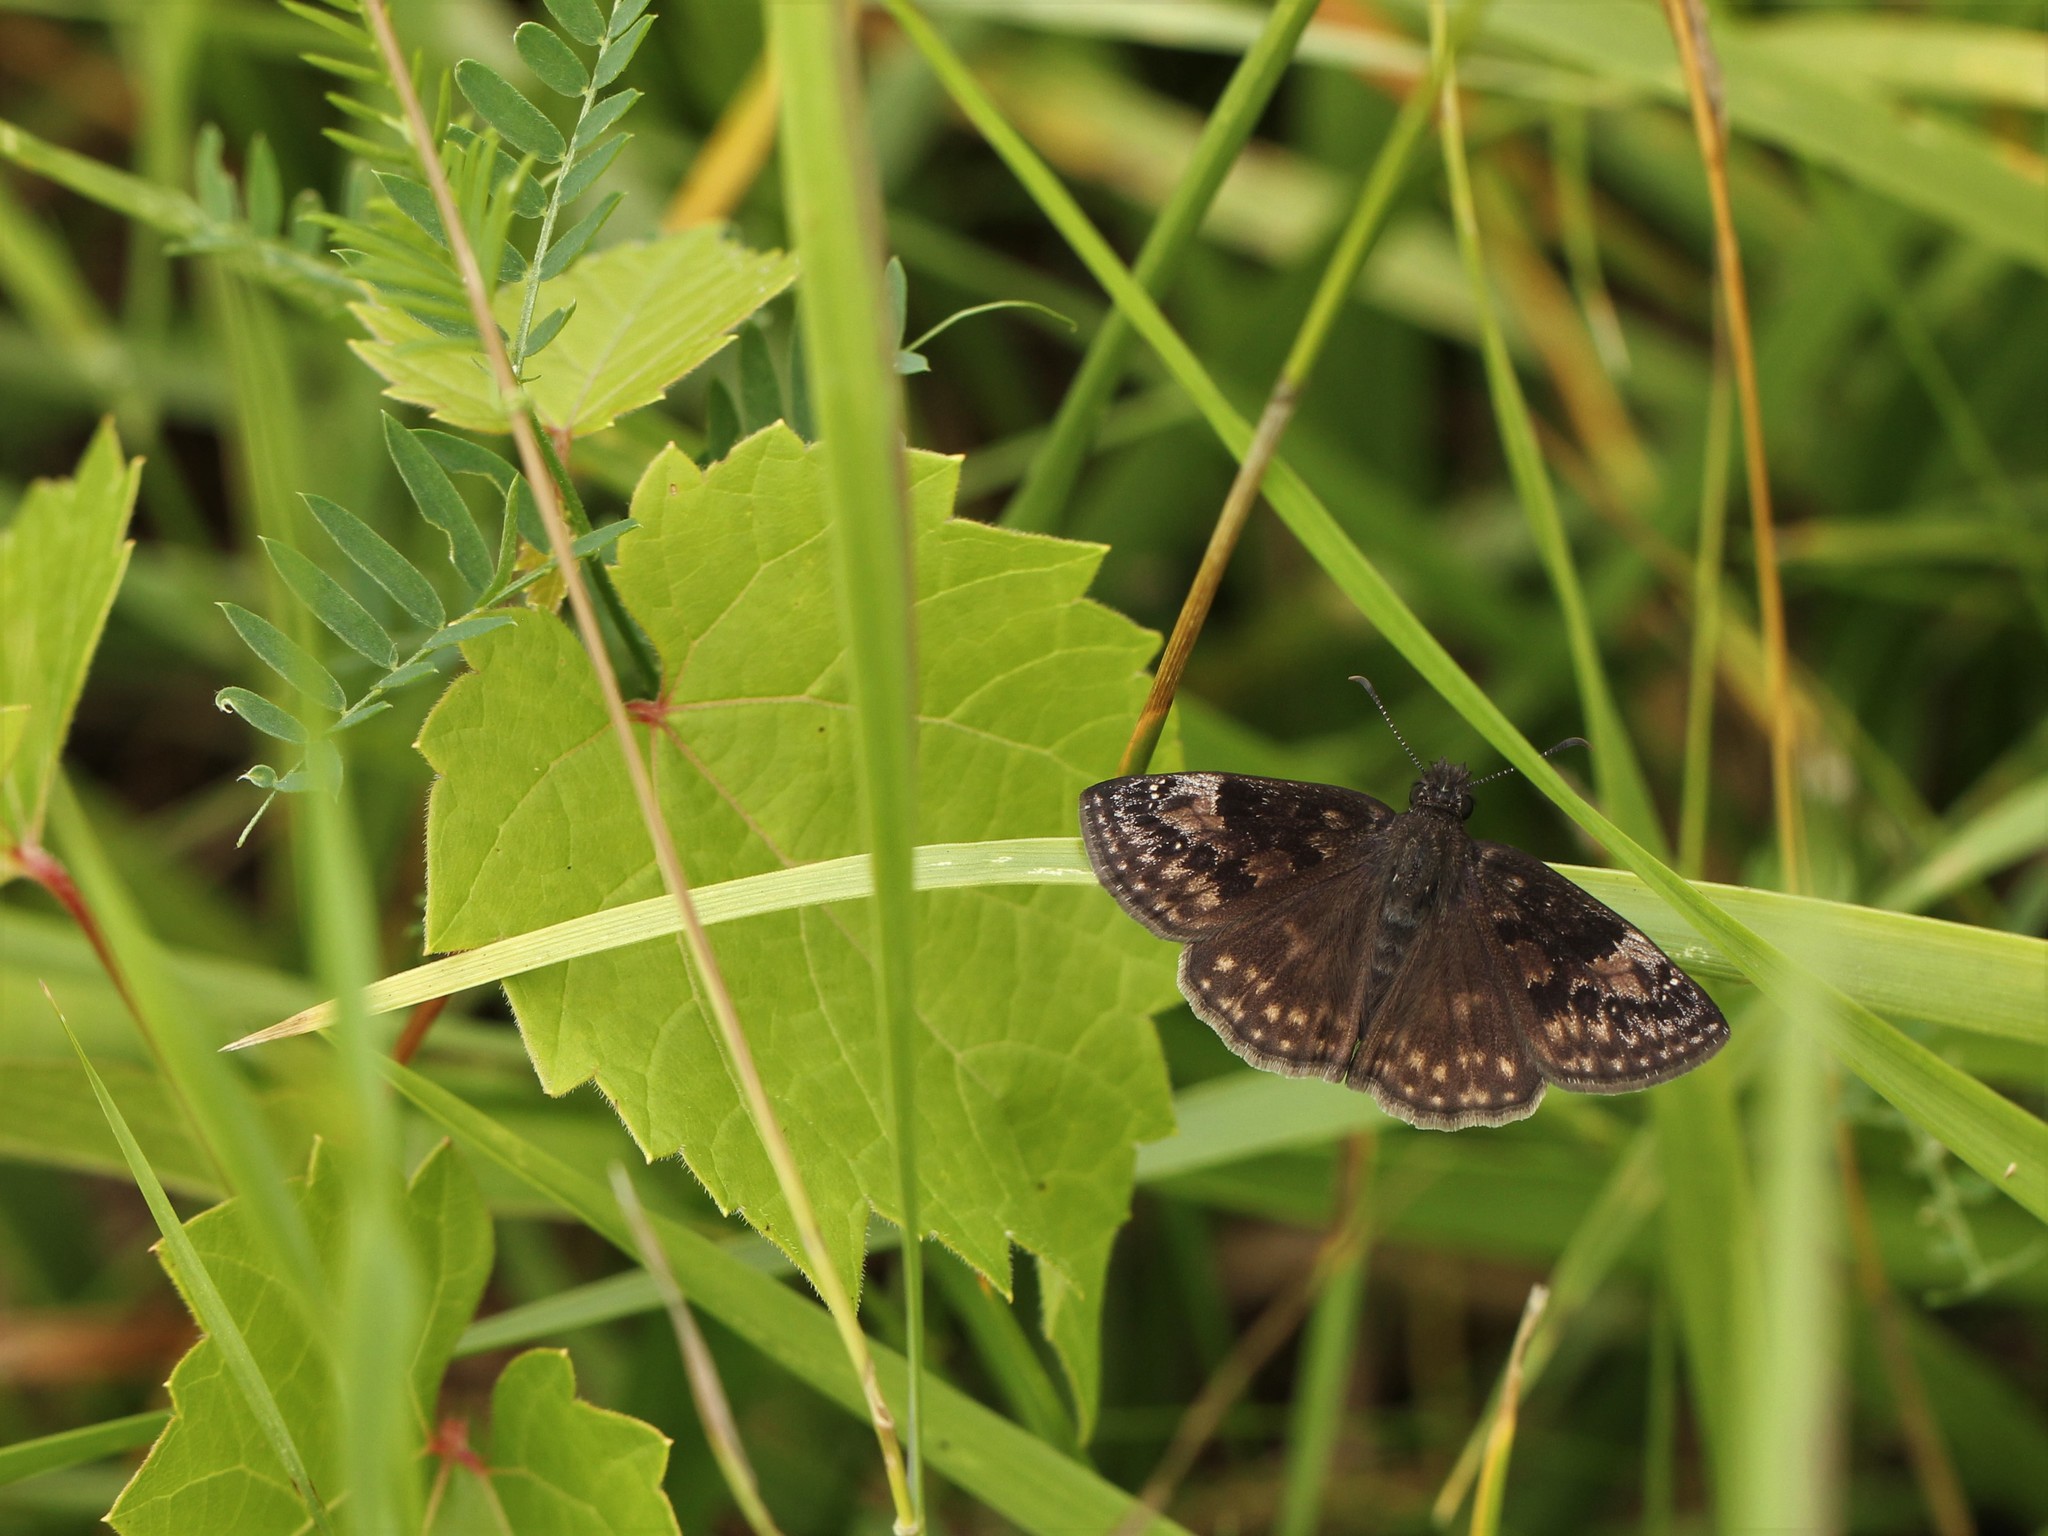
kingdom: Animalia
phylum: Arthropoda
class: Insecta
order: Lepidoptera
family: Hesperiidae
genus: Erynnis
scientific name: Erynnis baptisiae
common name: Wild indigo duskywing
